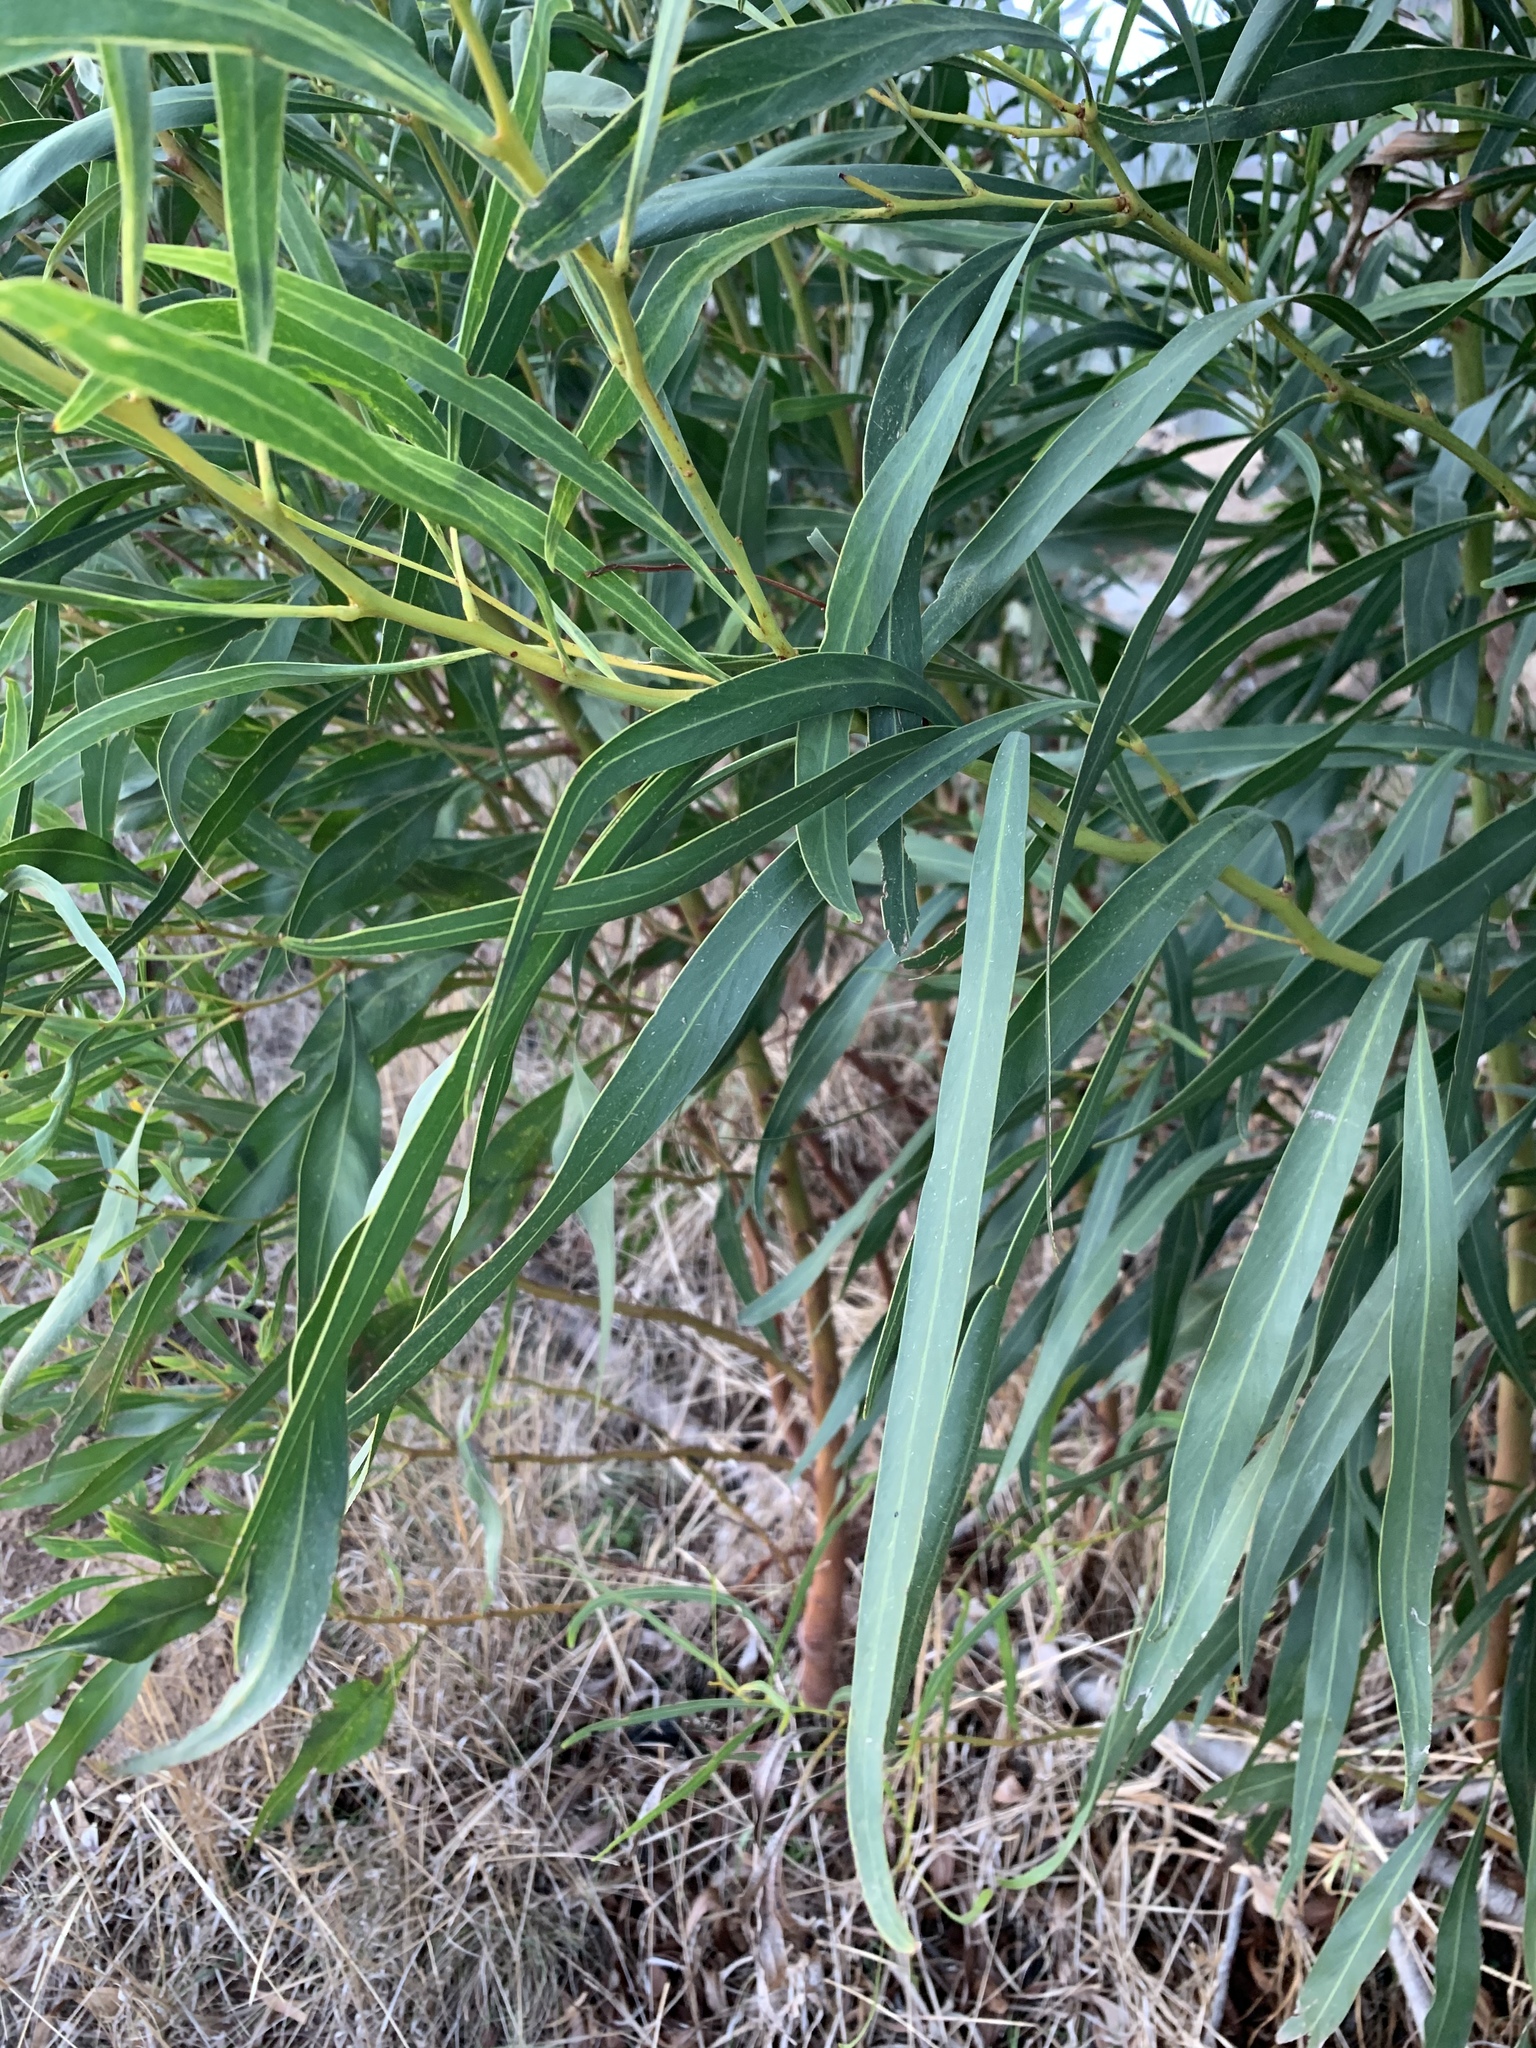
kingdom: Plantae
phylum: Tracheophyta
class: Magnoliopsida
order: Fabales
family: Fabaceae
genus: Acacia
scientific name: Acacia saligna
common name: Orange wattle
